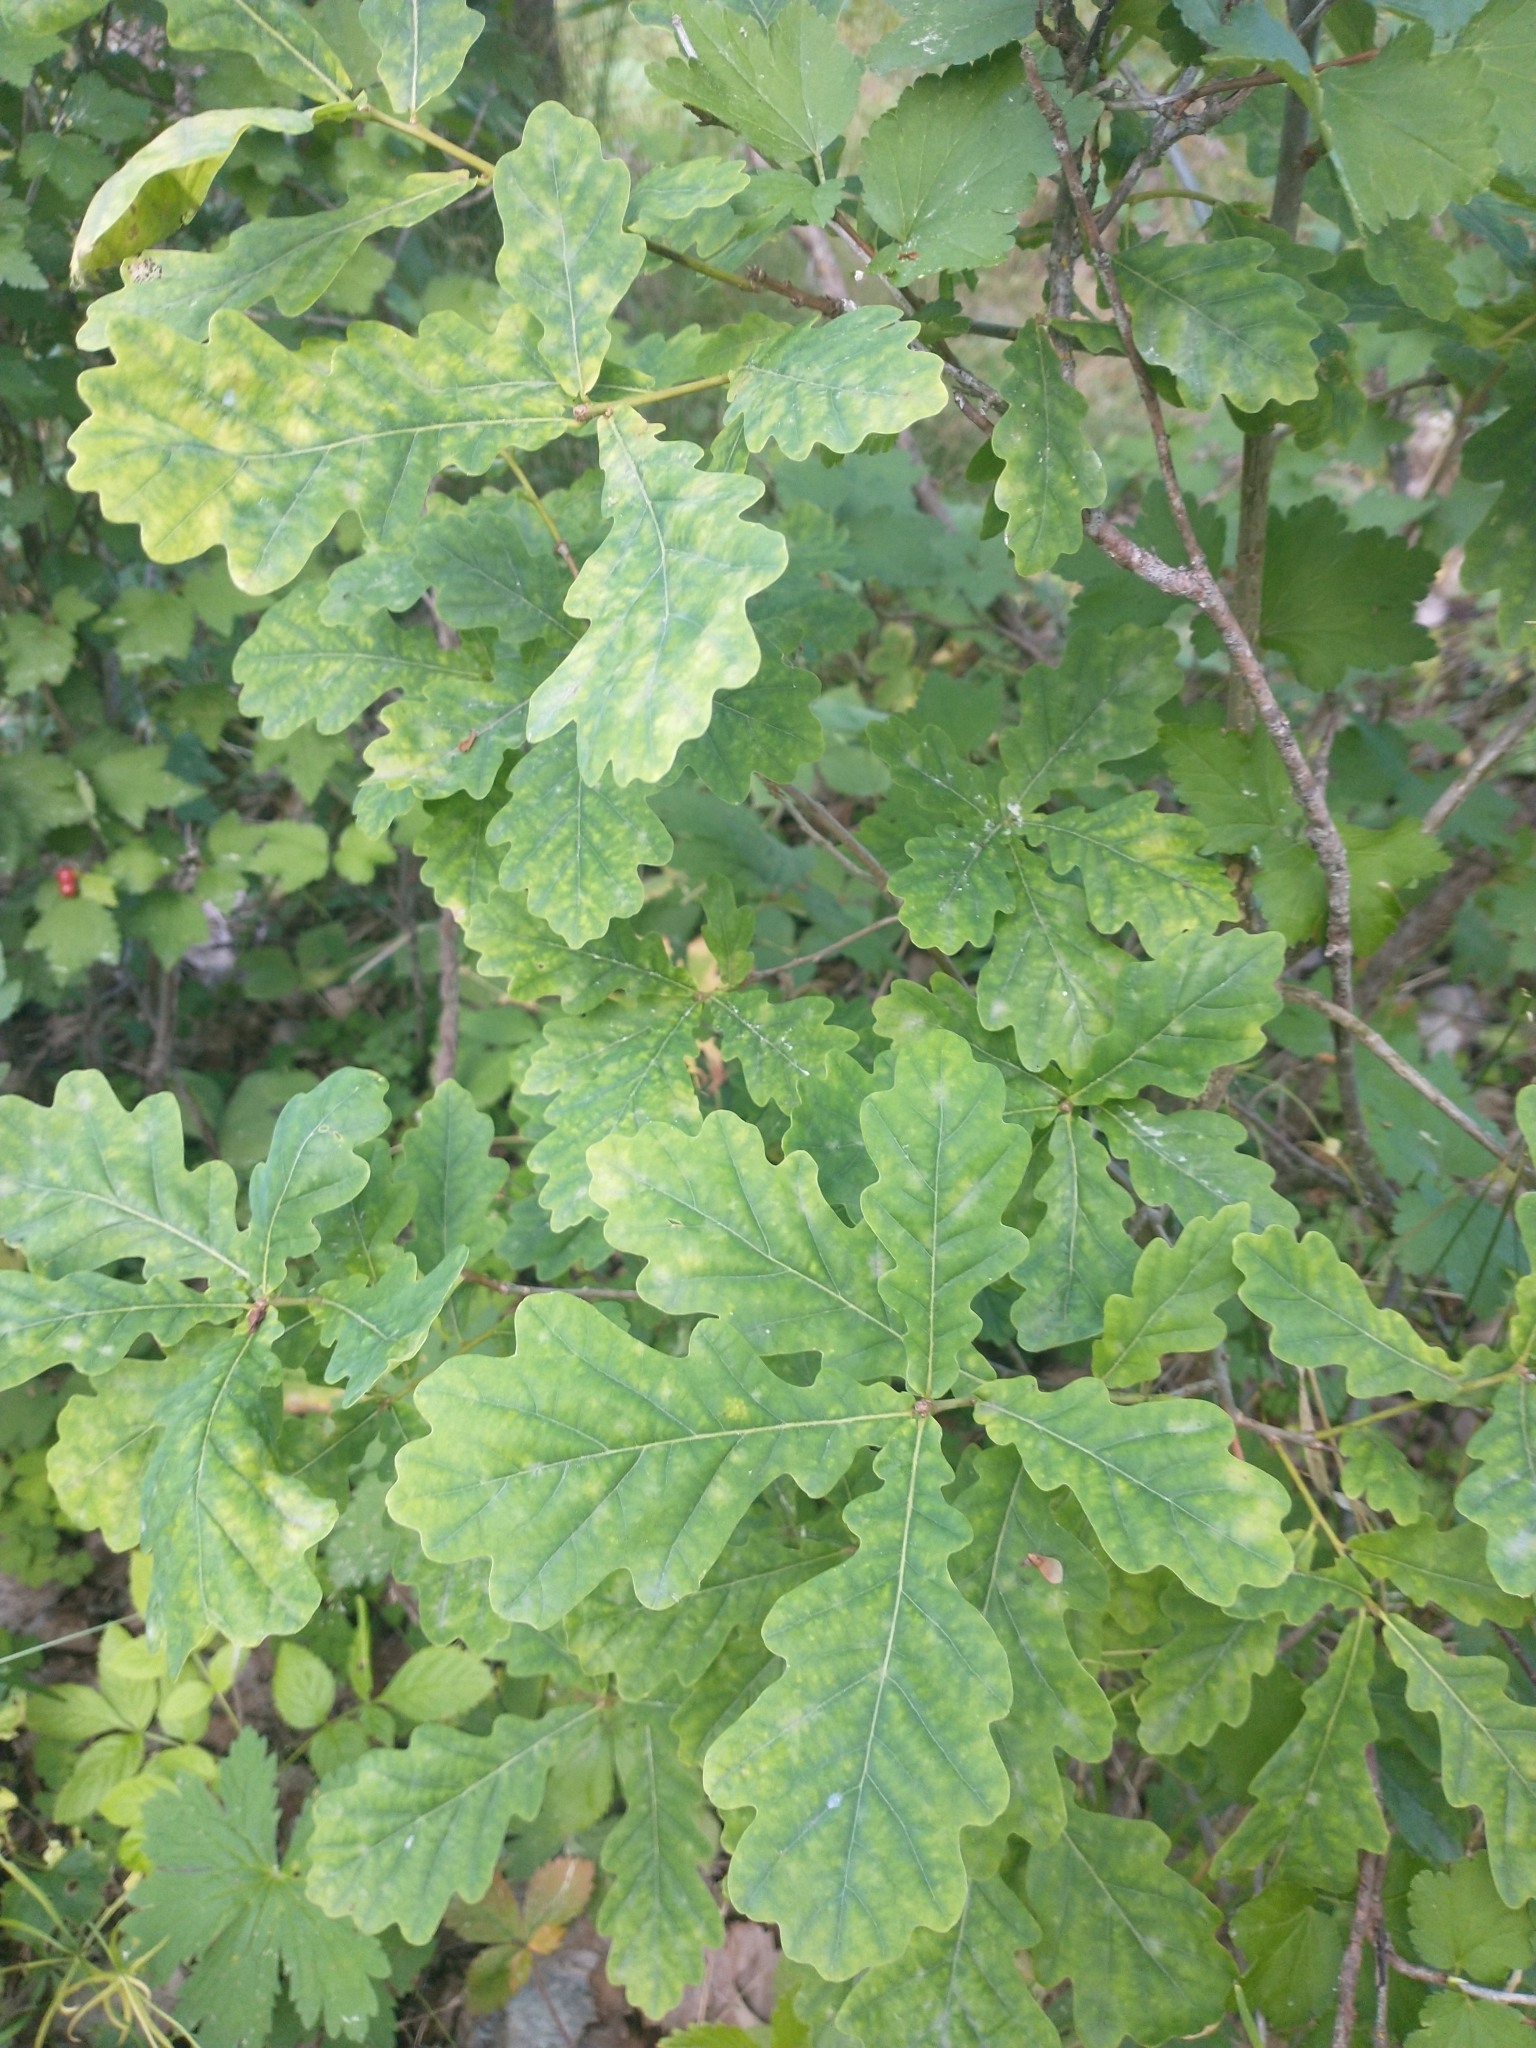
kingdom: Plantae
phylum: Tracheophyta
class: Magnoliopsida
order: Fagales
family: Fagaceae
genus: Quercus
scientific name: Quercus robur
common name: Pedunculate oak
